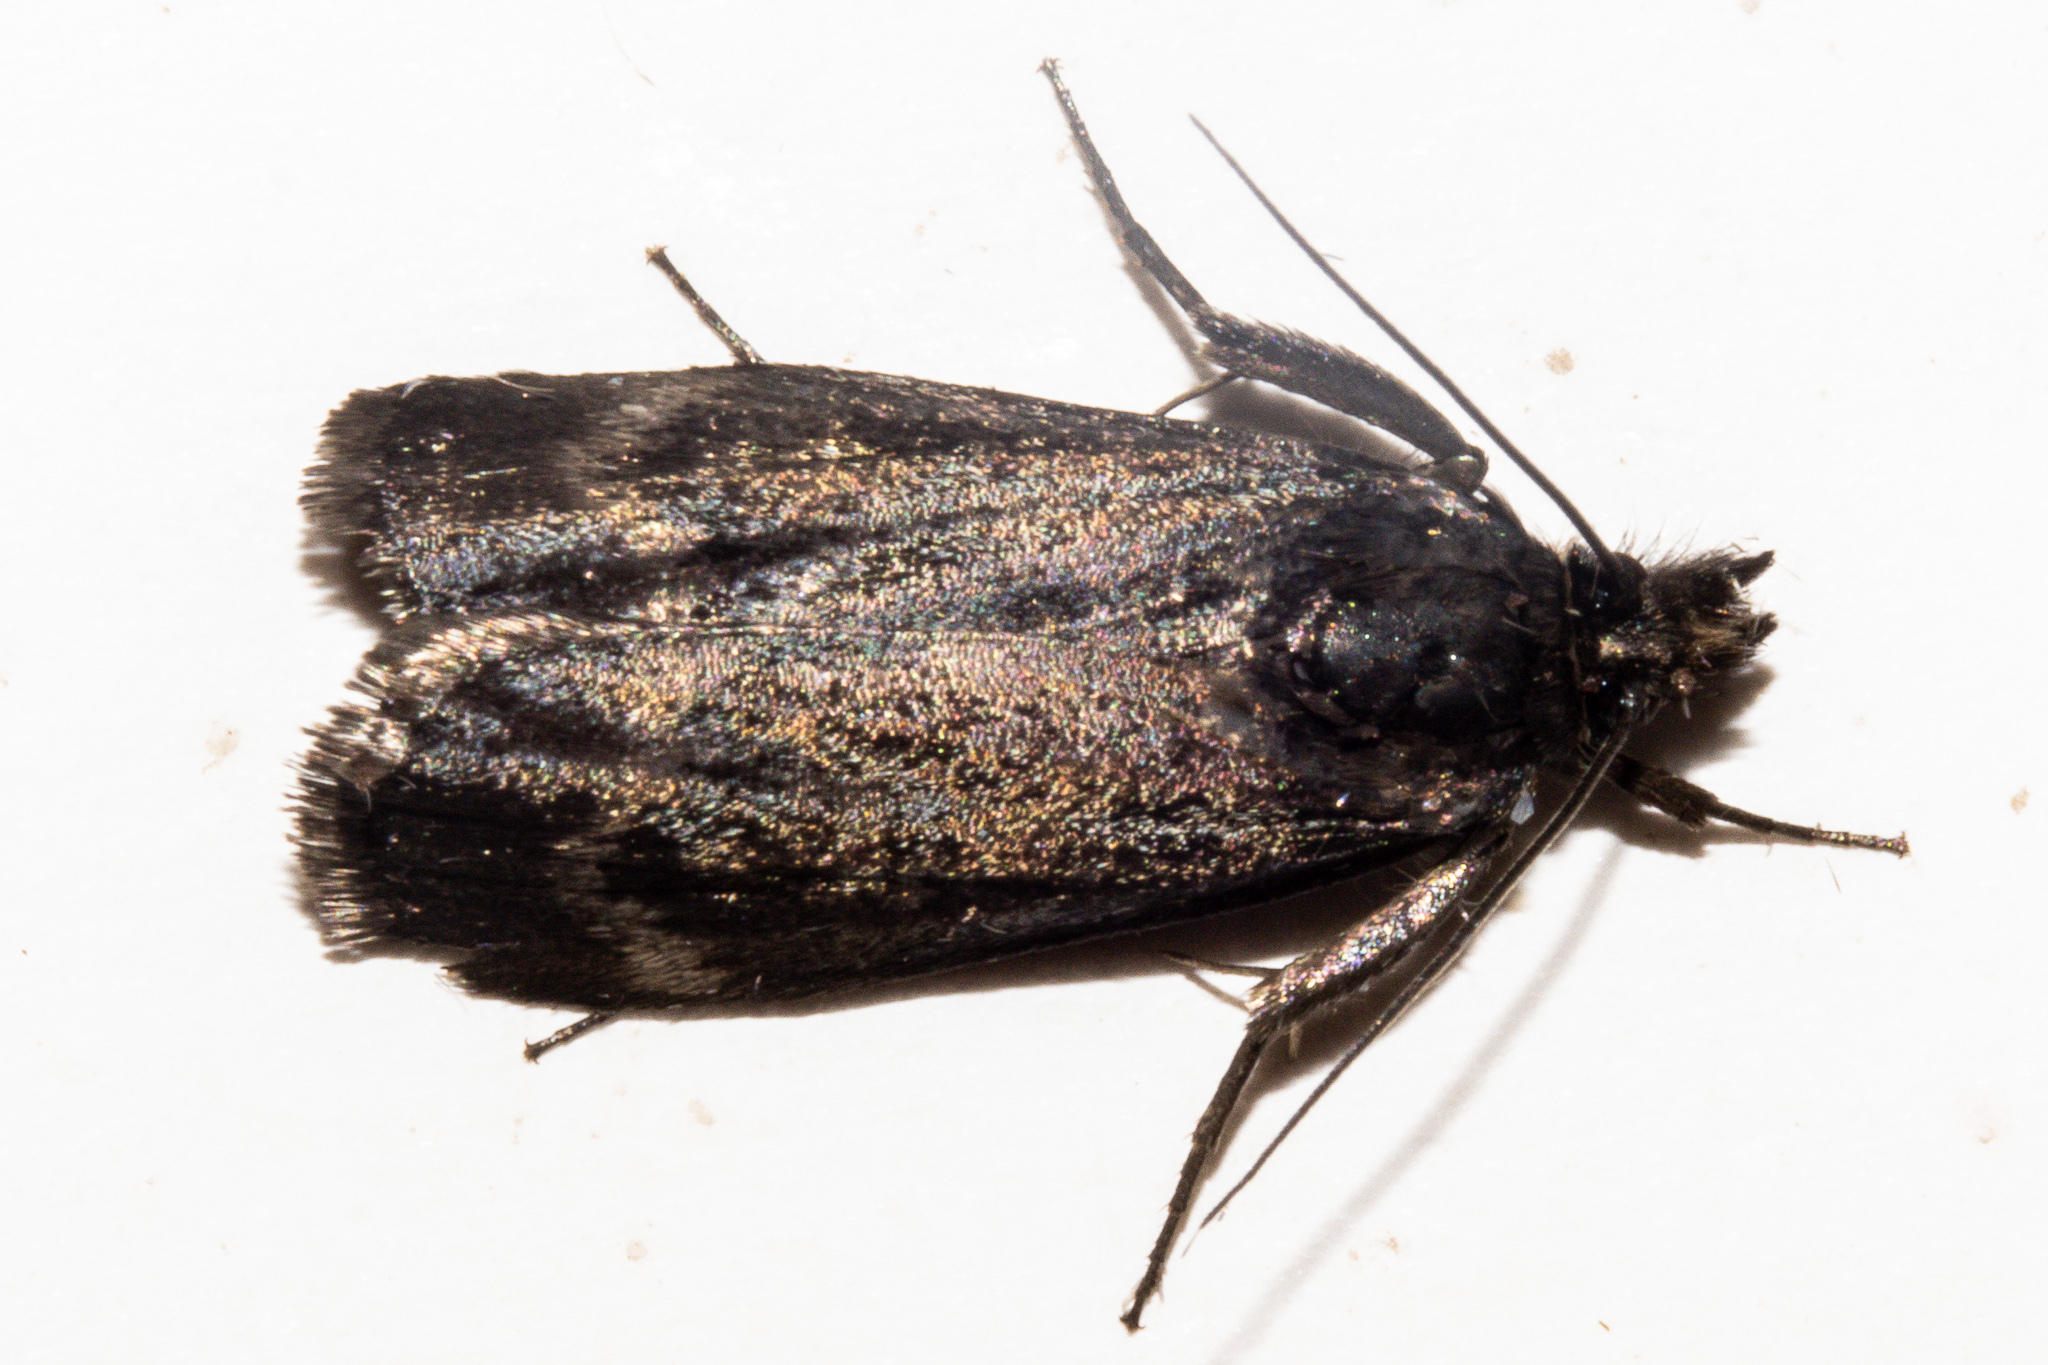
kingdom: Animalia
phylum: Arthropoda
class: Insecta
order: Lepidoptera
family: Crambidae
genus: Orocrambus
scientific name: Orocrambus clarkei
